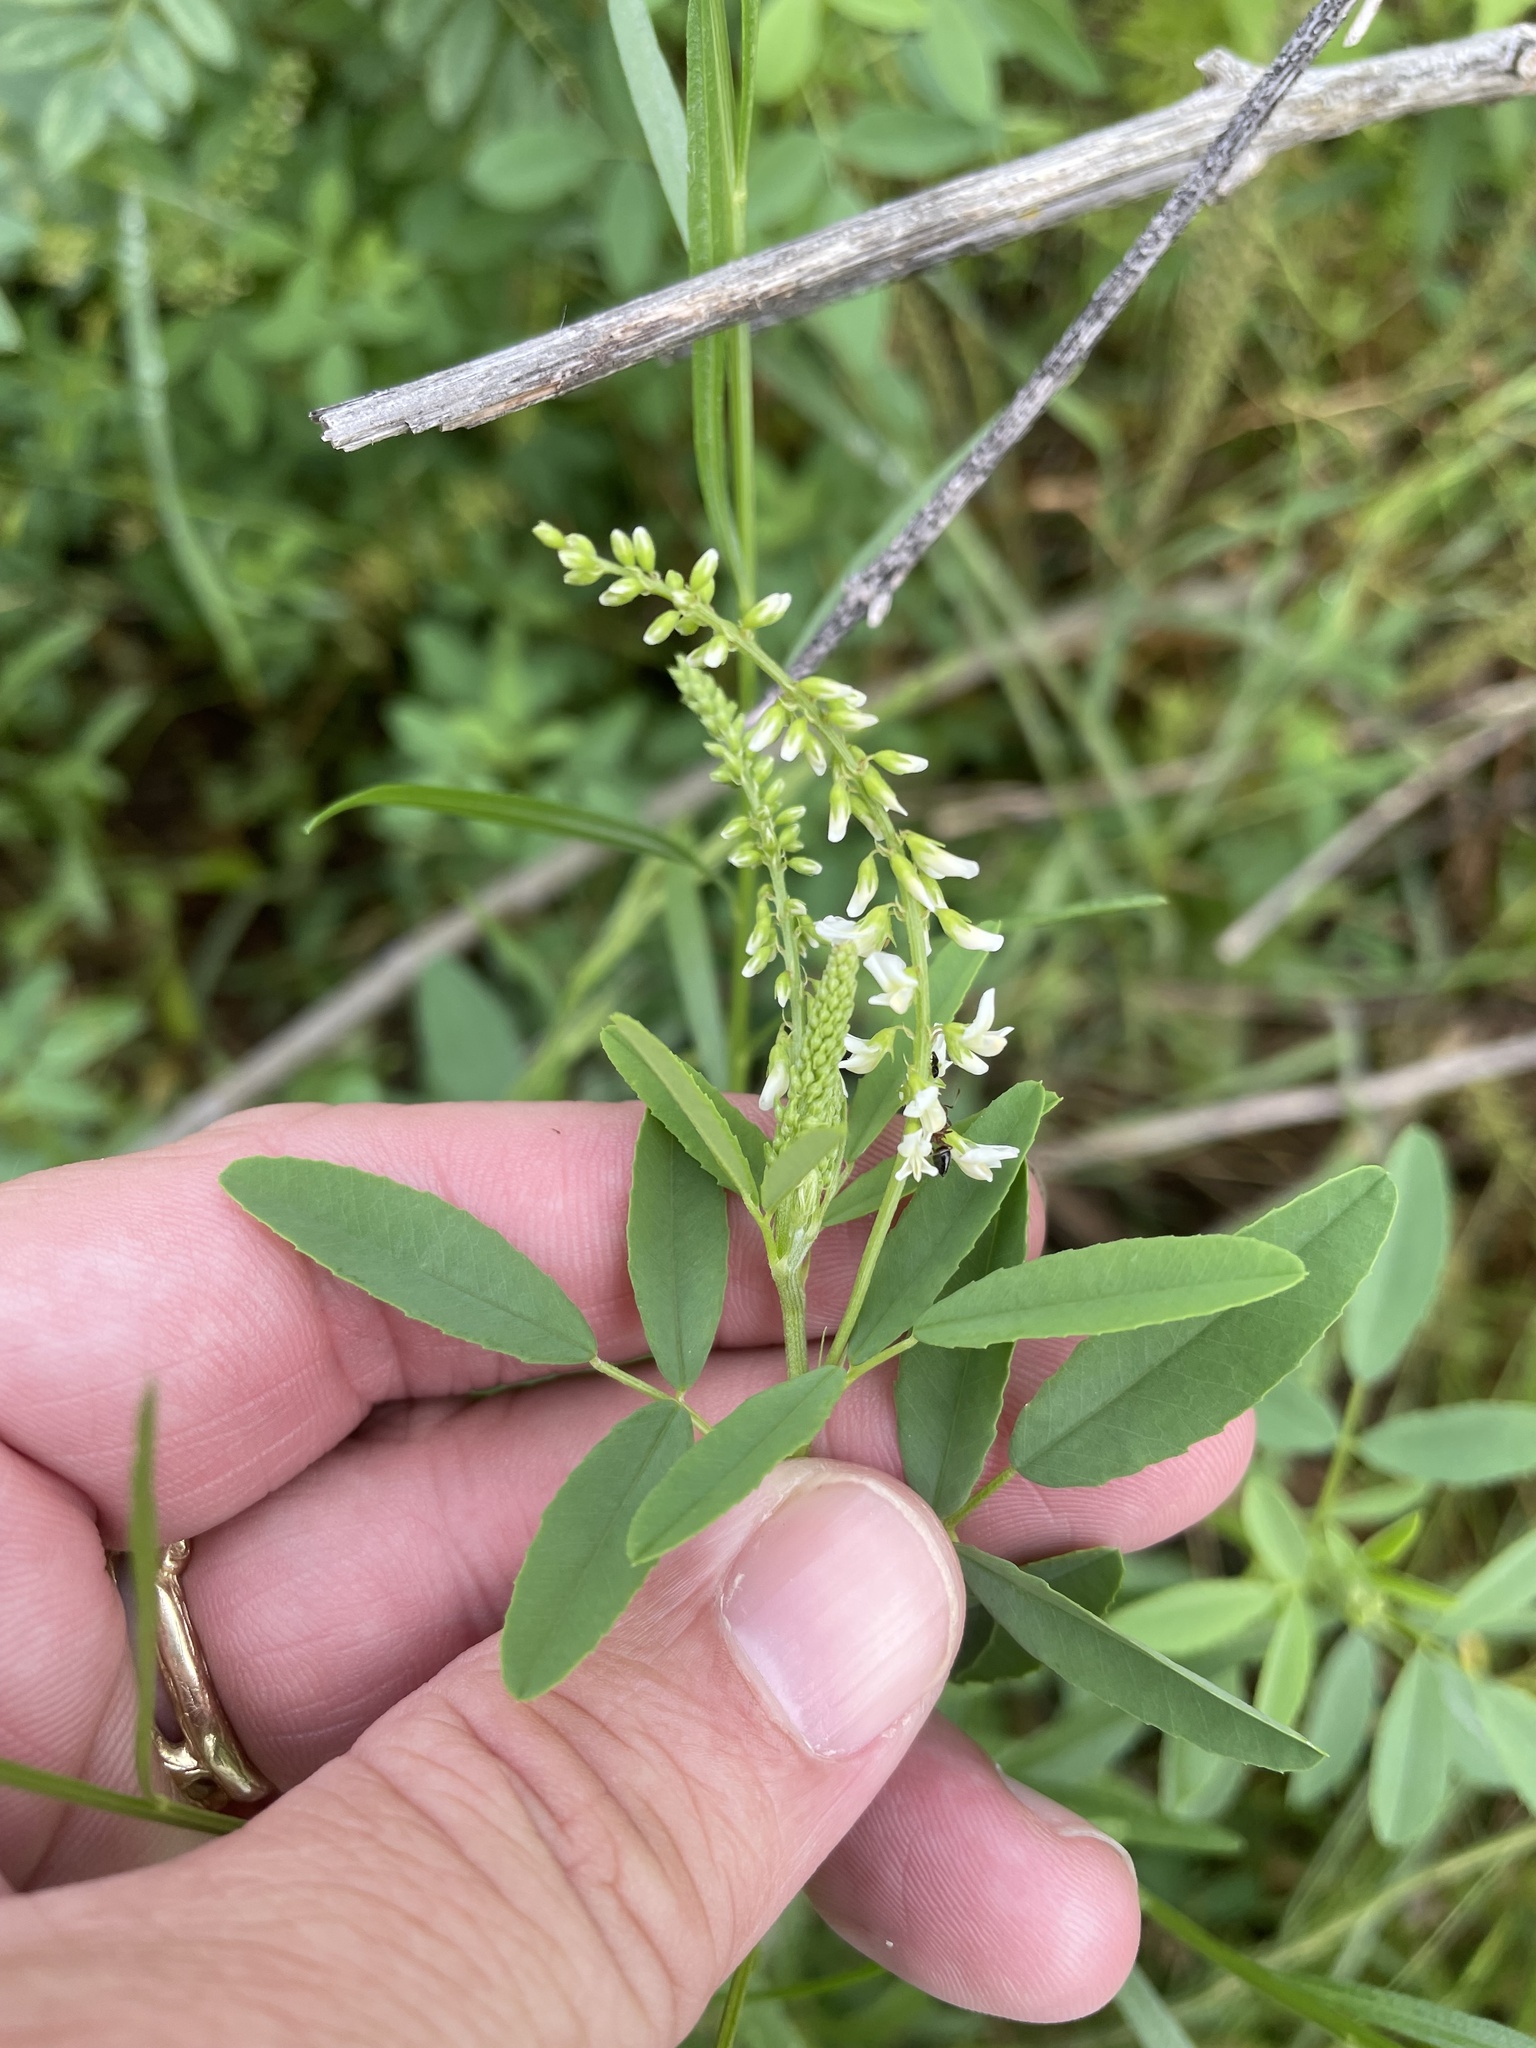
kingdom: Plantae
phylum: Tracheophyta
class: Magnoliopsida
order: Fabales
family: Fabaceae
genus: Melilotus
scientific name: Melilotus albus
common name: White melilot
